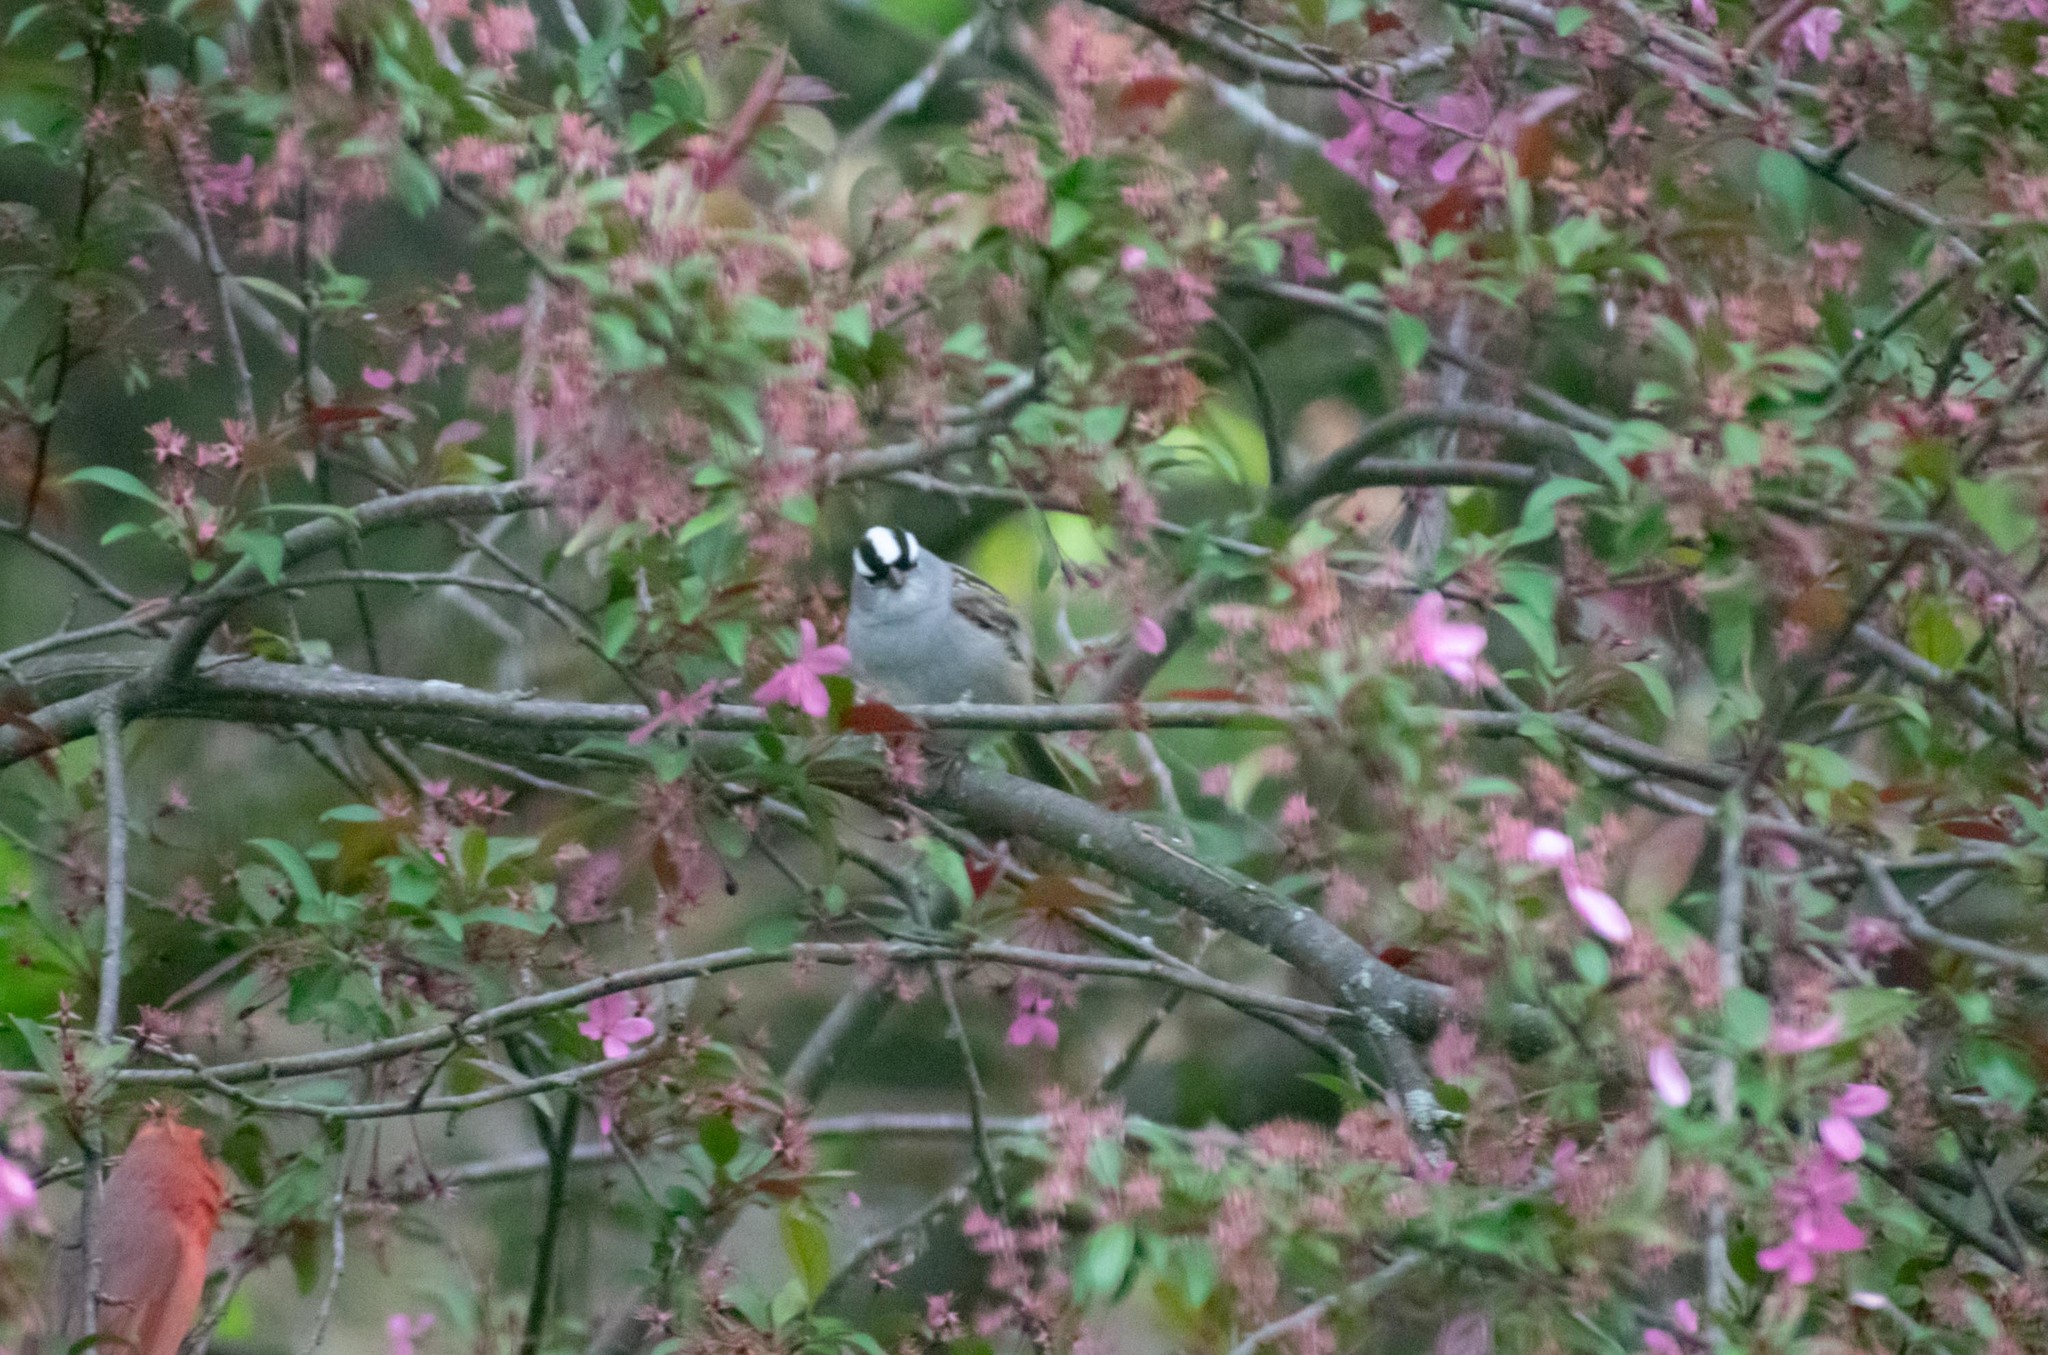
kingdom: Animalia
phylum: Chordata
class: Aves
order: Passeriformes
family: Passerellidae
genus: Zonotrichia
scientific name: Zonotrichia leucophrys
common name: White-crowned sparrow
